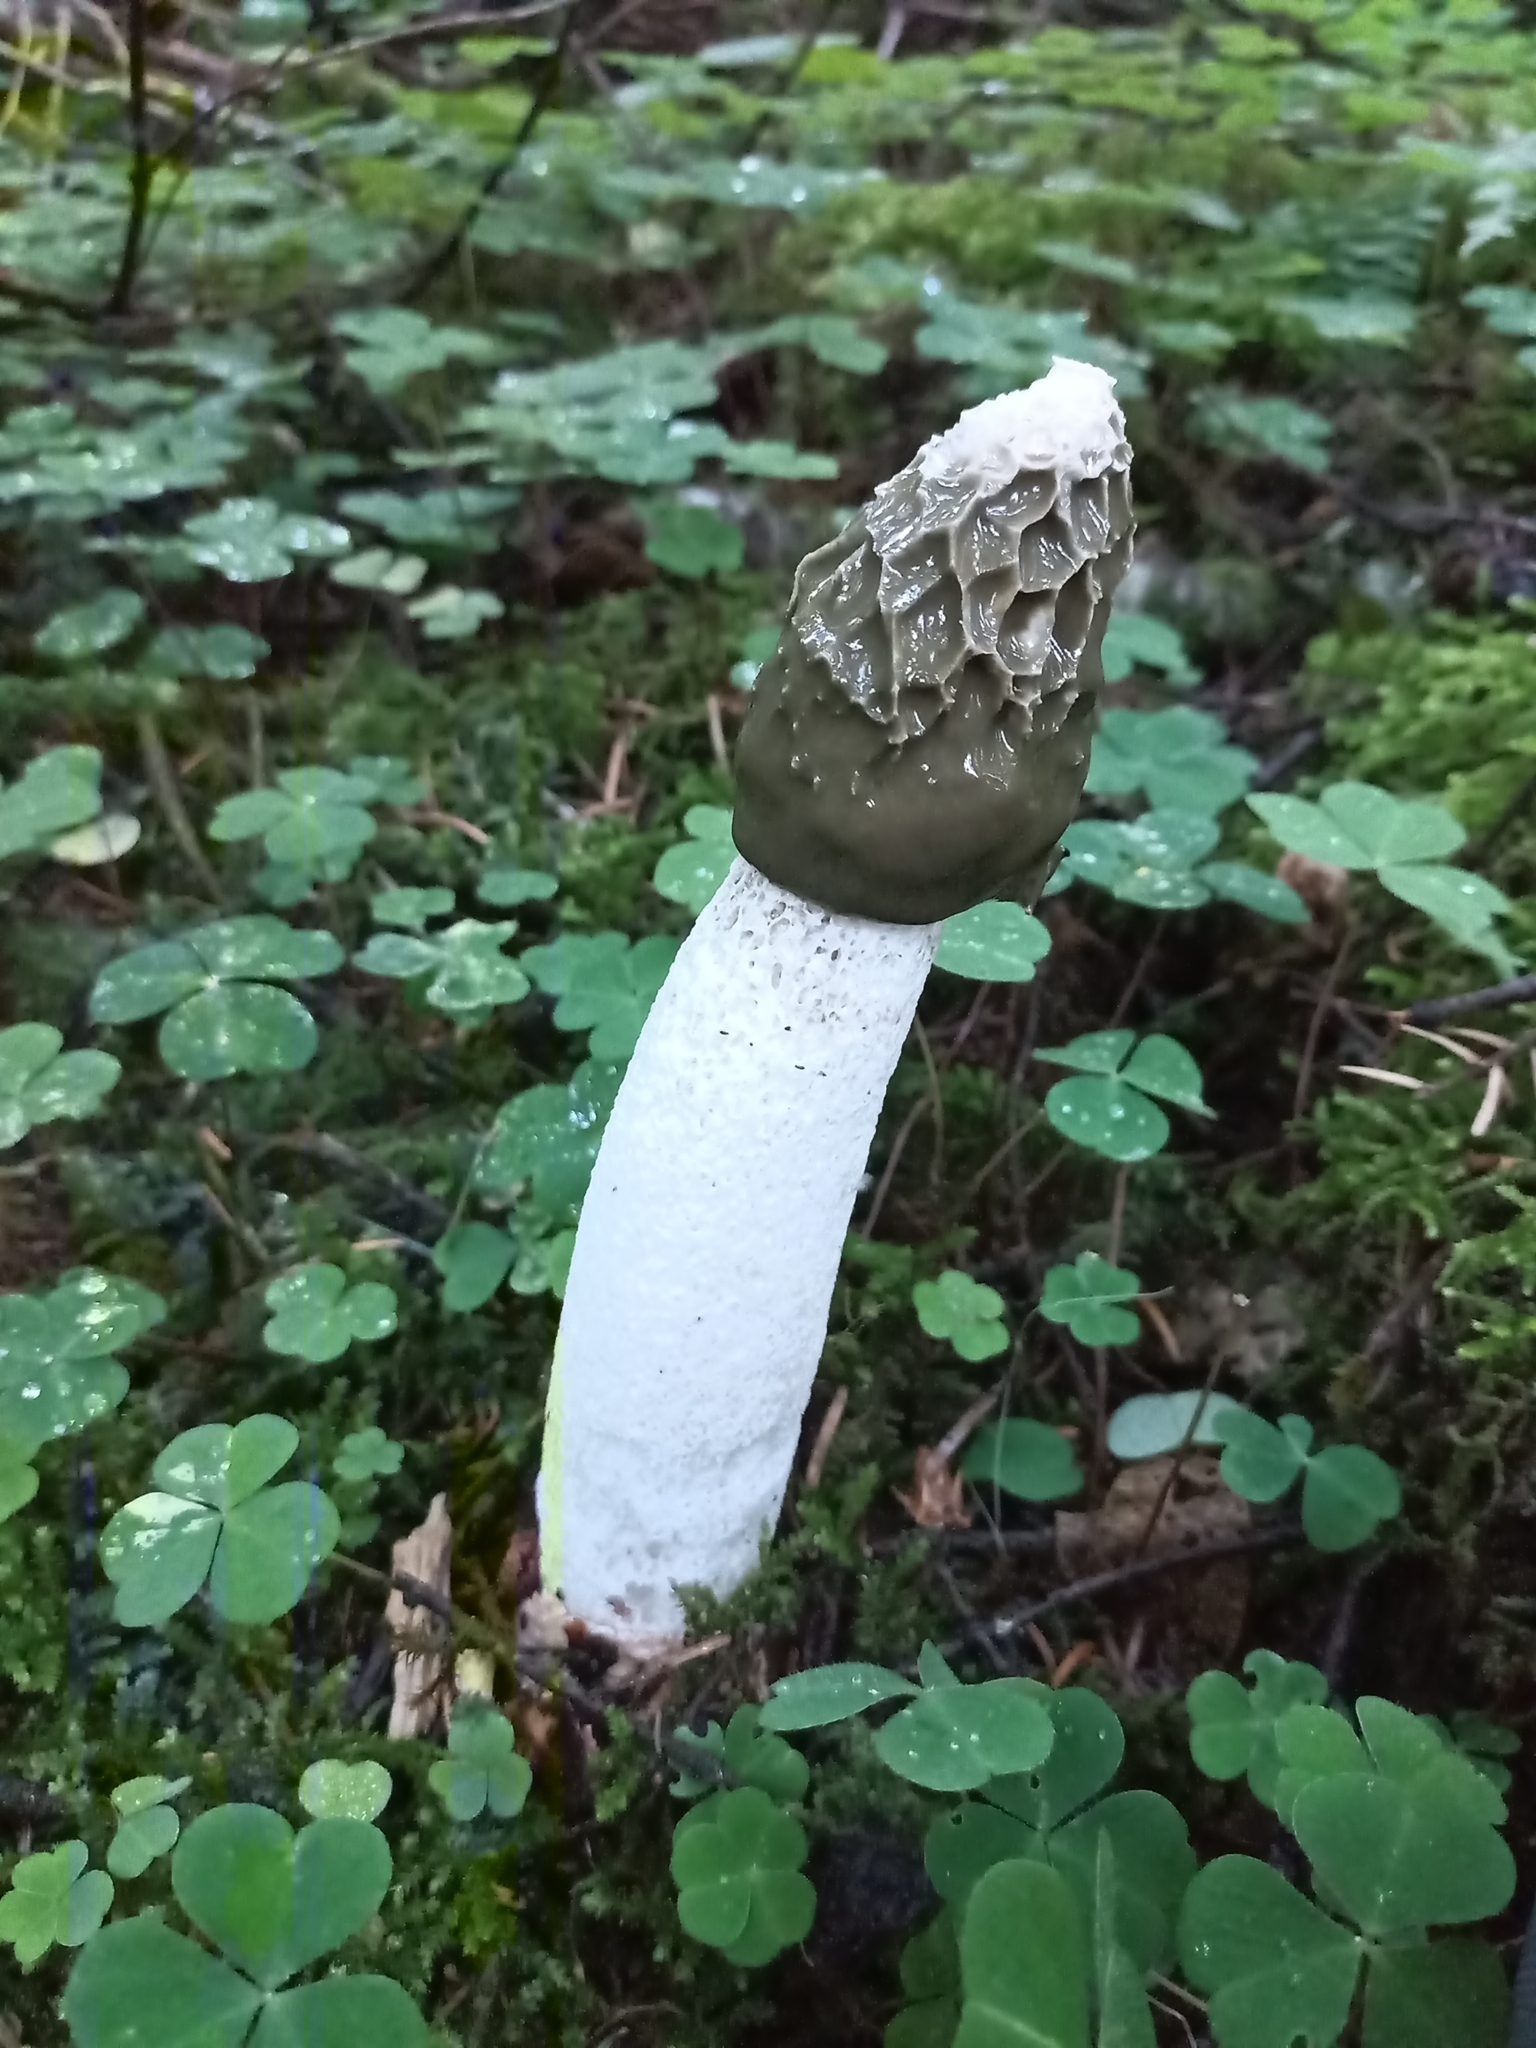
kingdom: Fungi
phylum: Basidiomycota
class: Agaricomycetes
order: Phallales
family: Phallaceae
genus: Phallus
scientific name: Phallus impudicus
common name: Common stinkhorn
